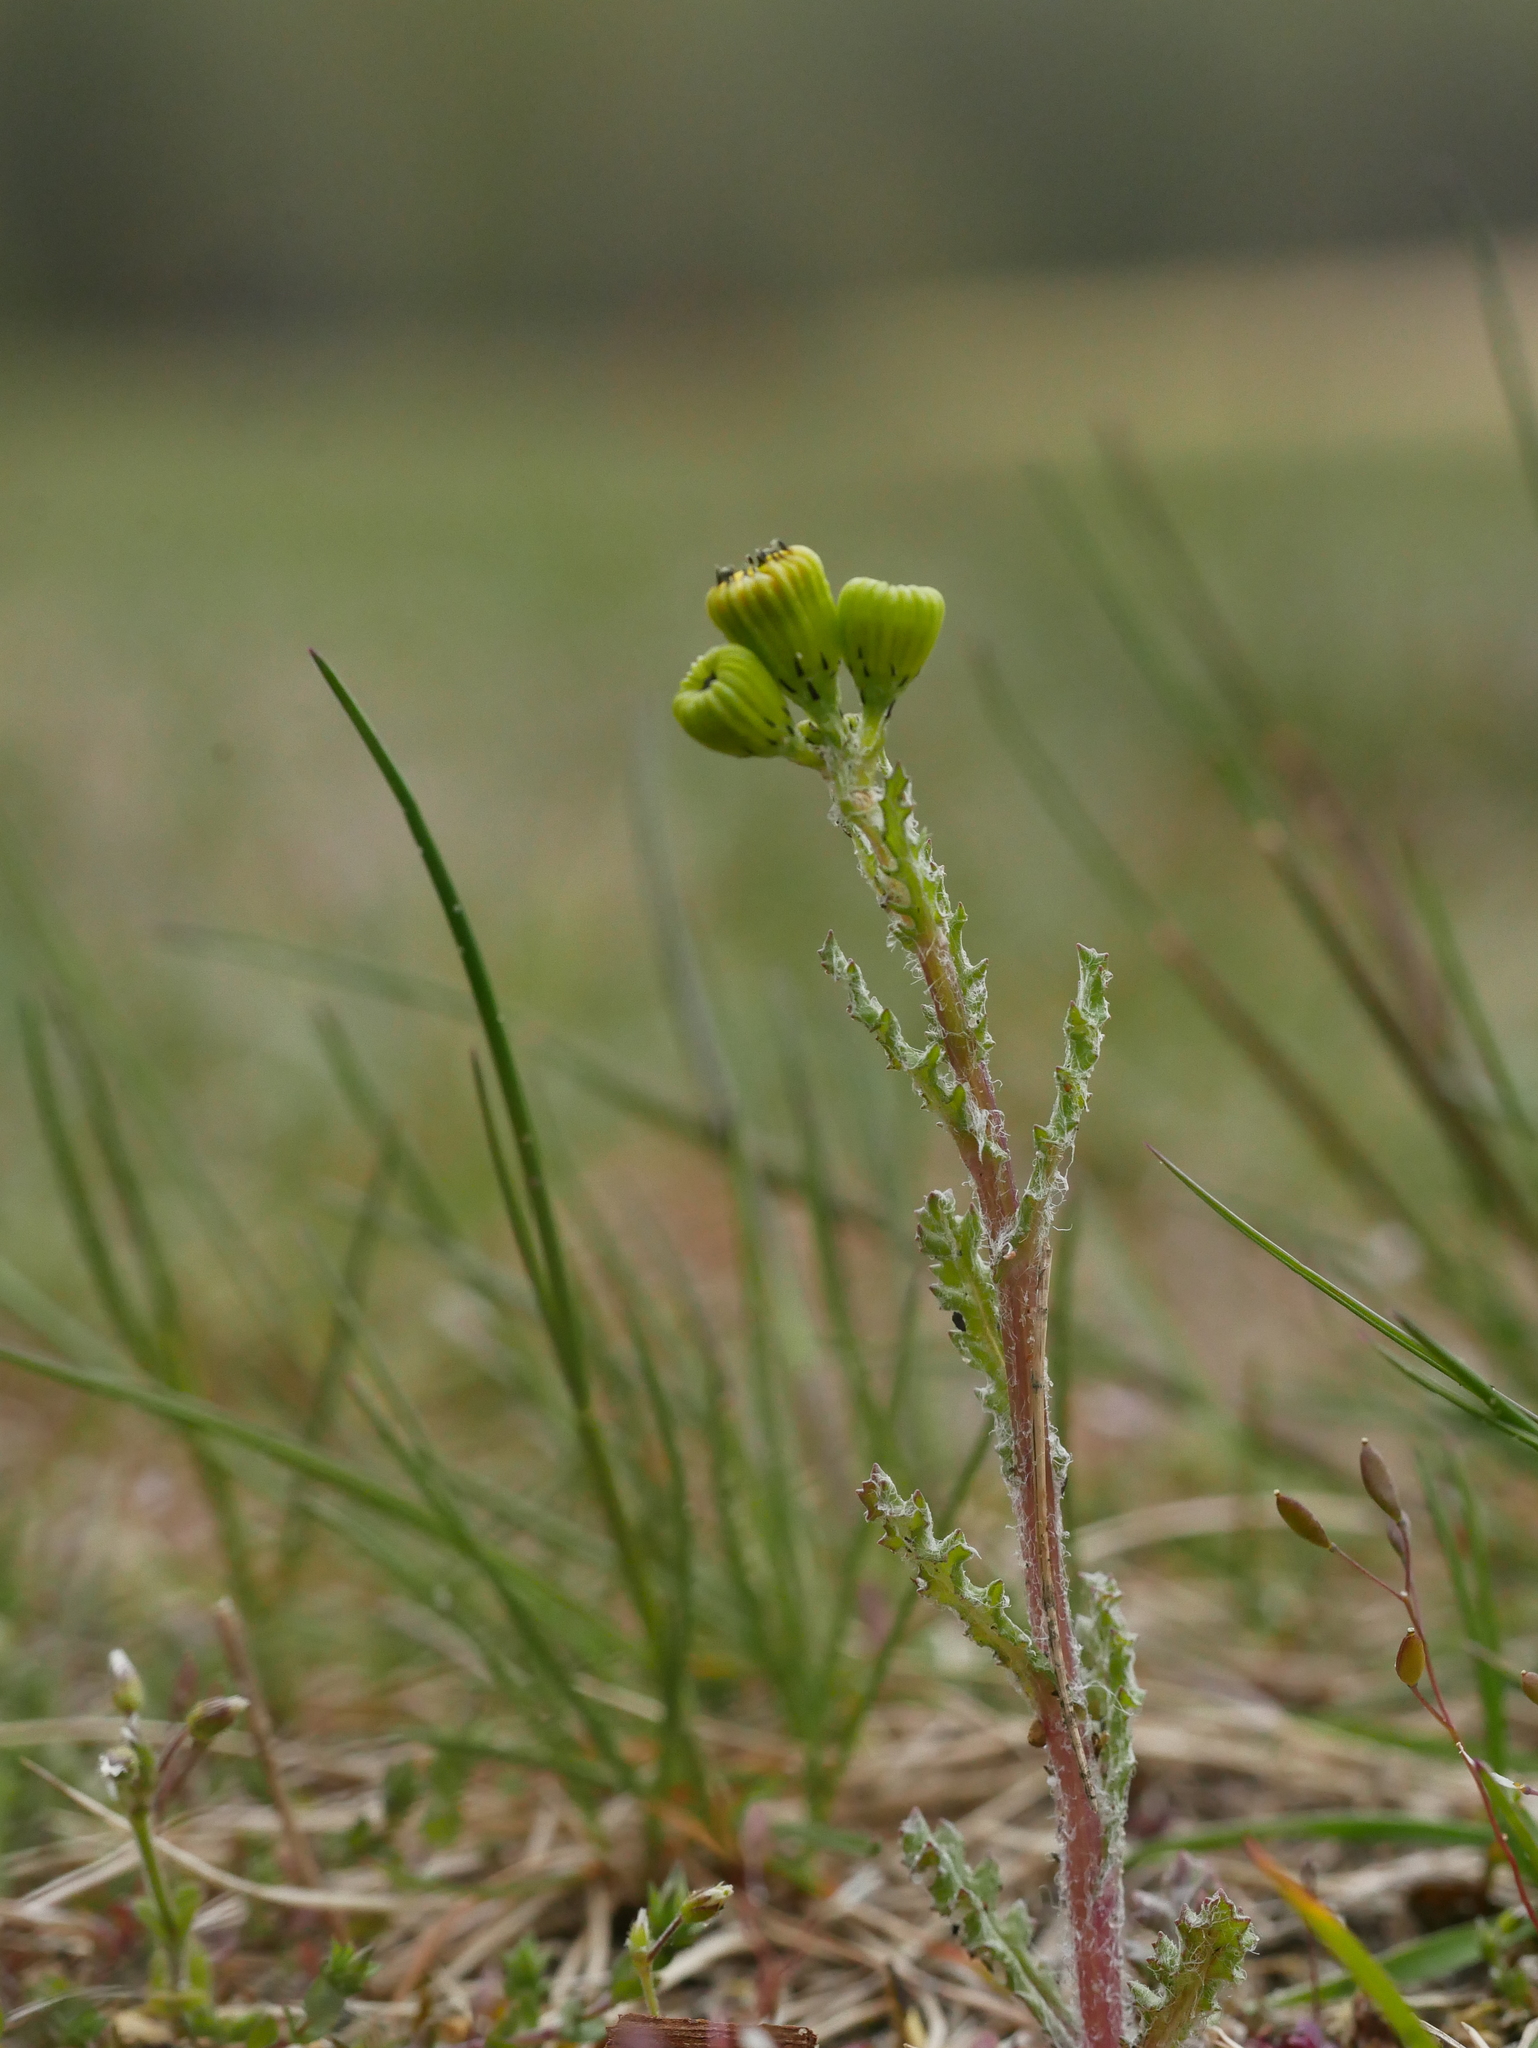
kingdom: Plantae
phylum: Tracheophyta
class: Magnoliopsida
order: Asterales
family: Asteraceae
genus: Senecio
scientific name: Senecio vernalis
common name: Eastern groundsel
